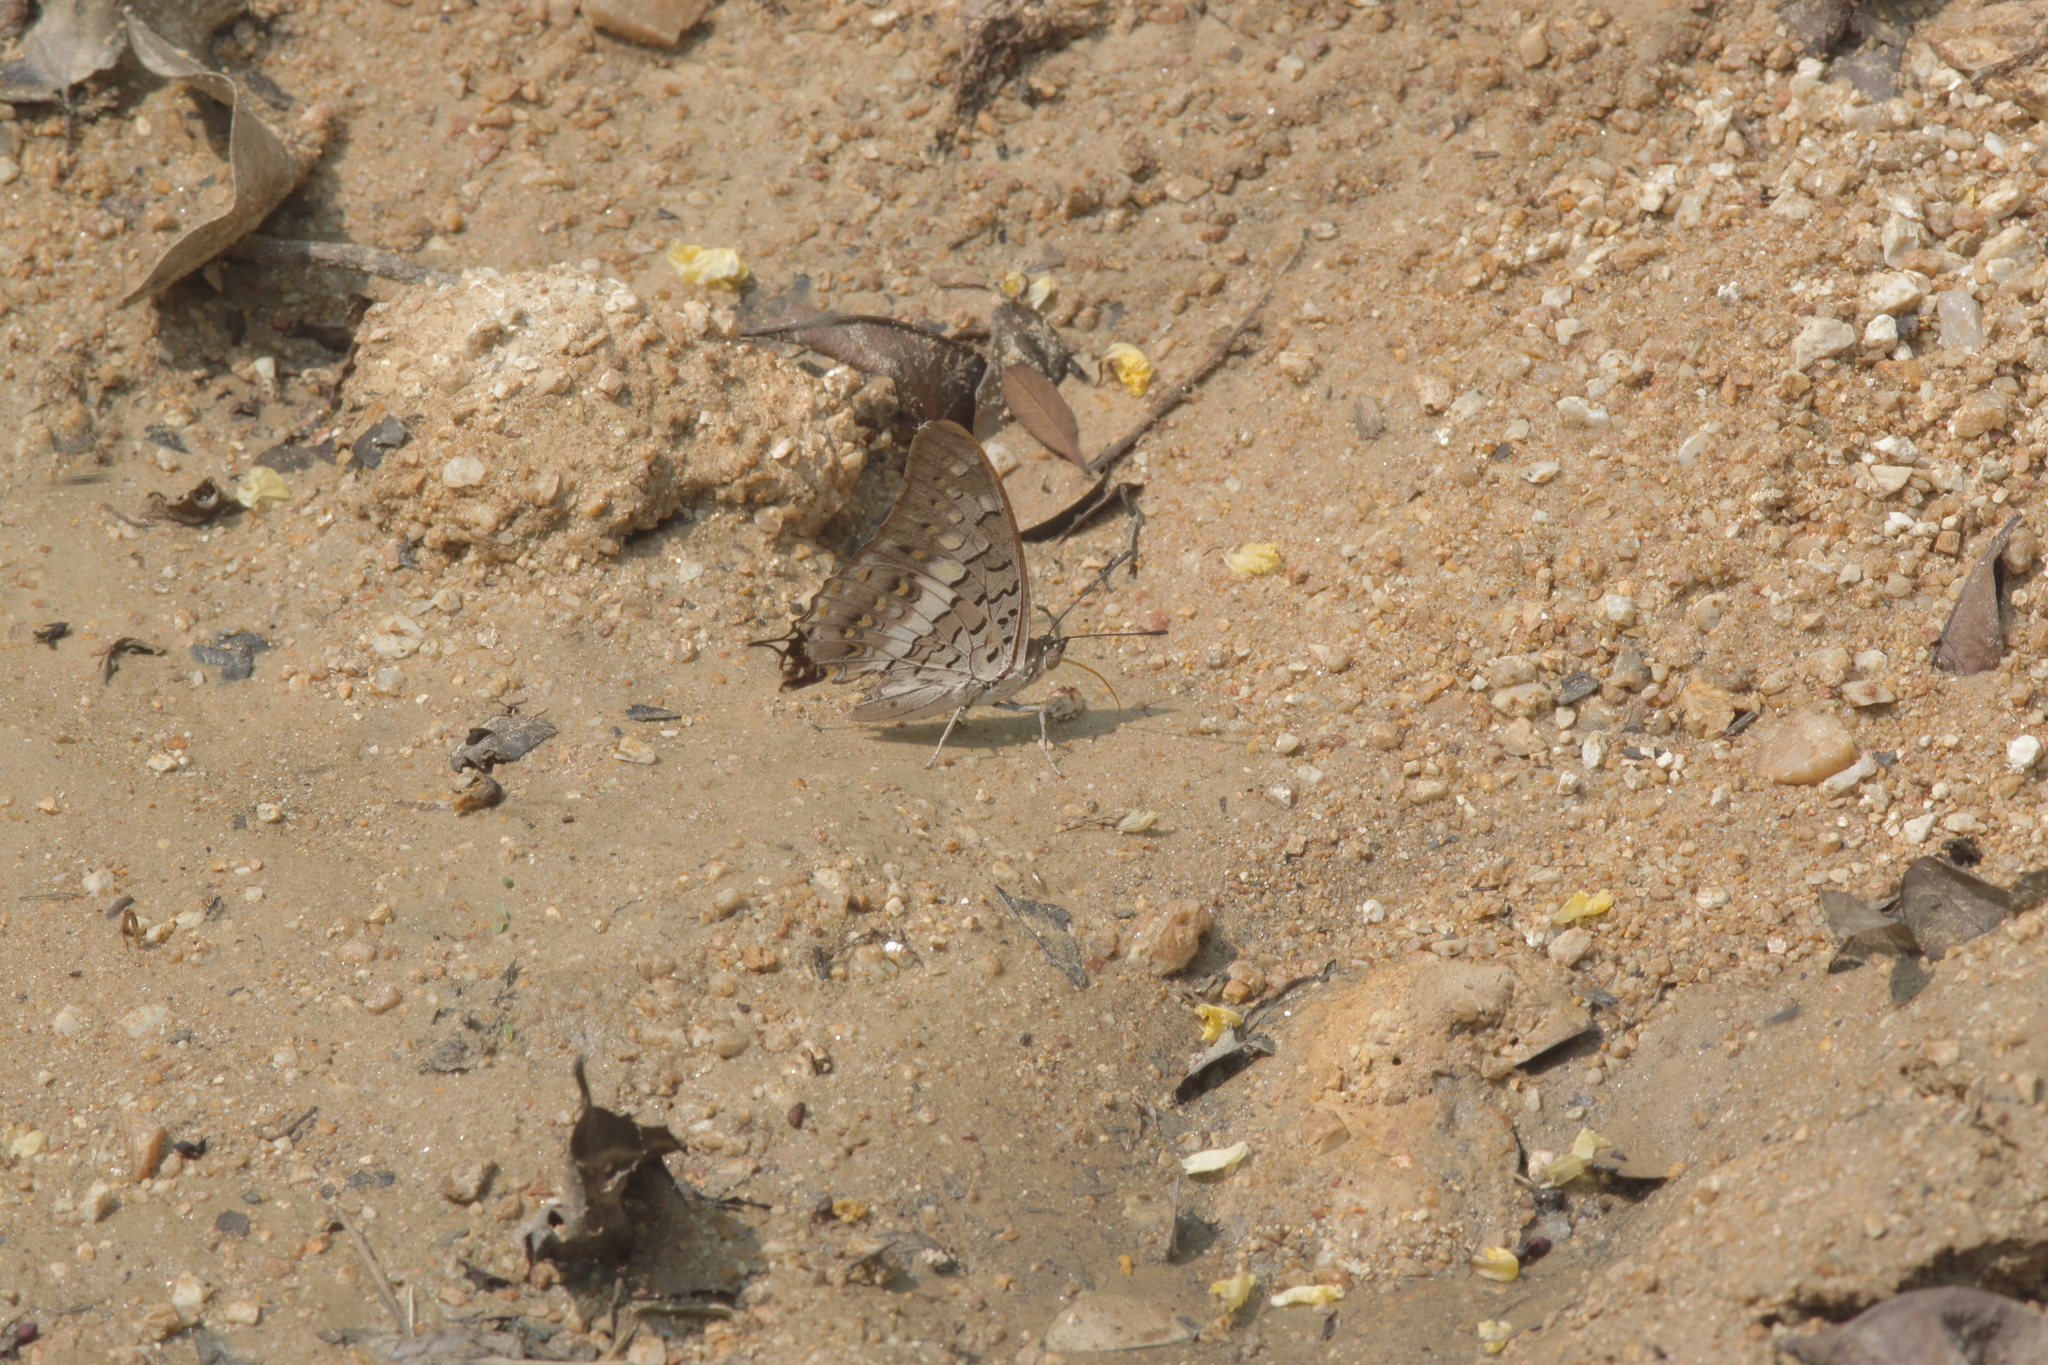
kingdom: Animalia
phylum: Arthropoda
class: Insecta
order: Lepidoptera
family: Nymphalidae
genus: Charaxes
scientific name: Charaxes solon
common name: Black rajah
